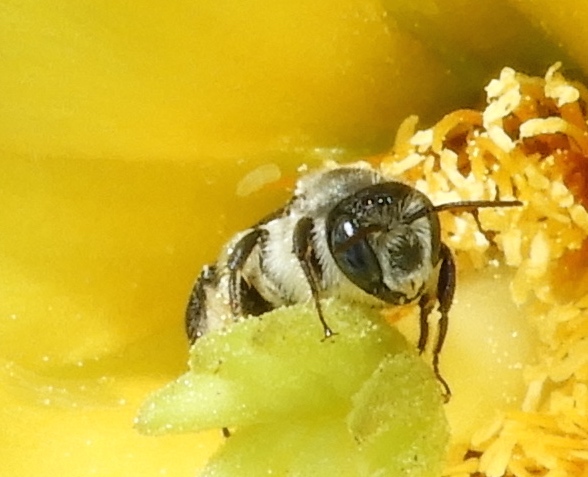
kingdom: Animalia
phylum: Arthropoda
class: Insecta
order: Hymenoptera
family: Megachilidae
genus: Lithurgopsis
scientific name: Lithurgopsis
